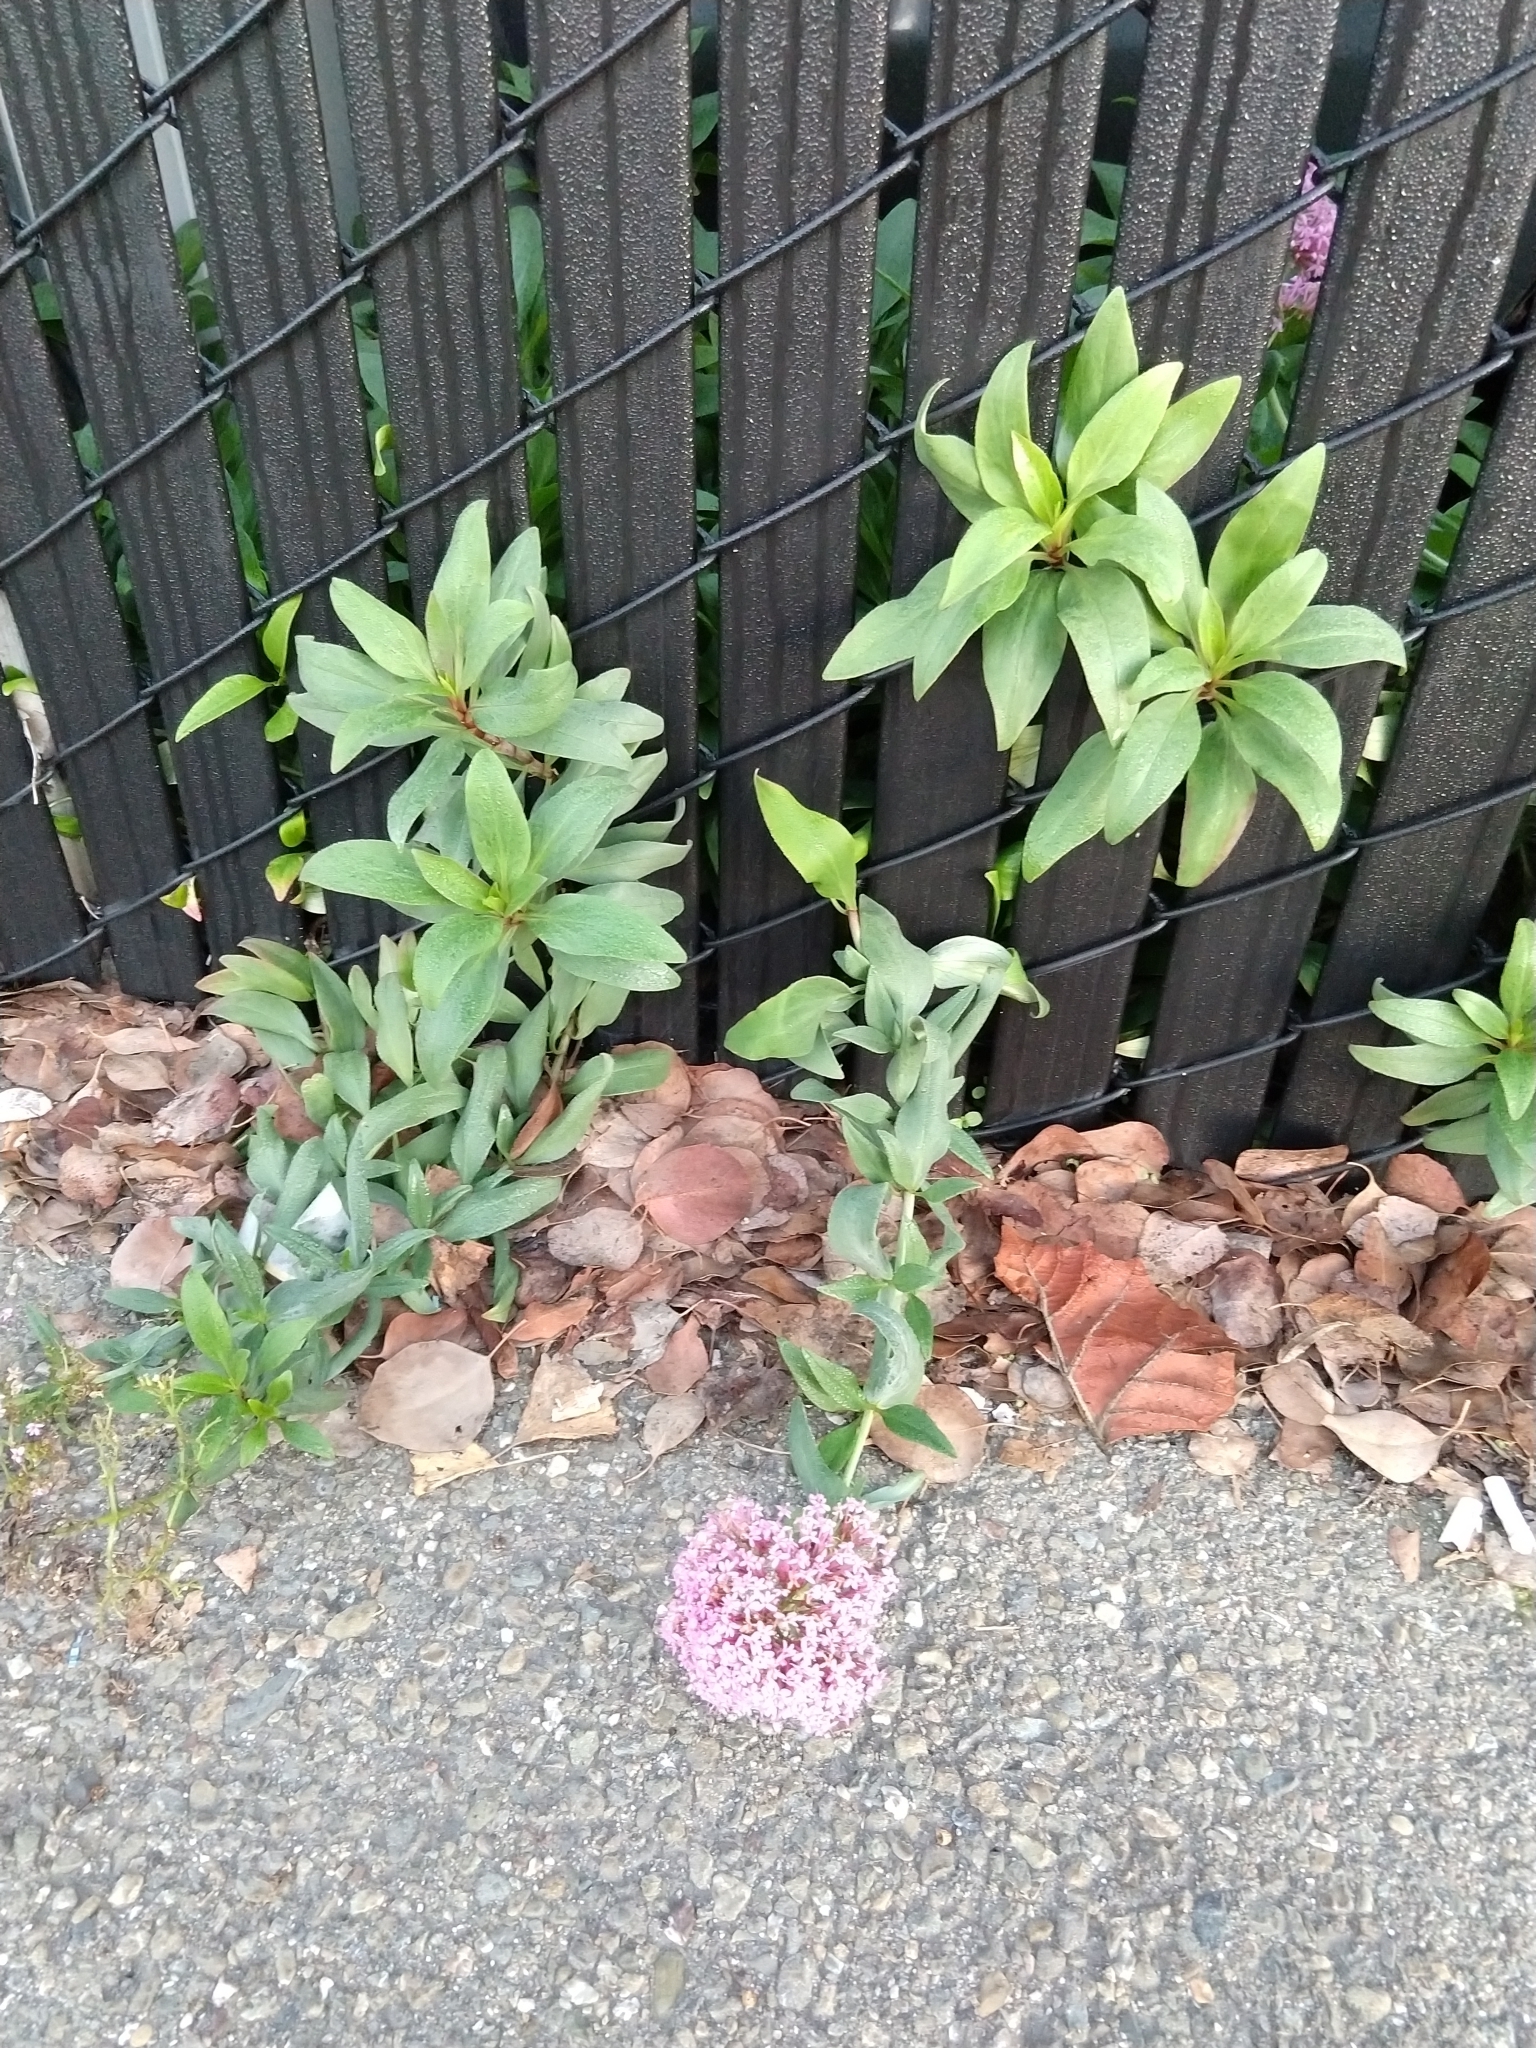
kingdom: Plantae
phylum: Tracheophyta
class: Magnoliopsida
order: Dipsacales
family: Caprifoliaceae
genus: Centranthus
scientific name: Centranthus ruber
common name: Red valerian
